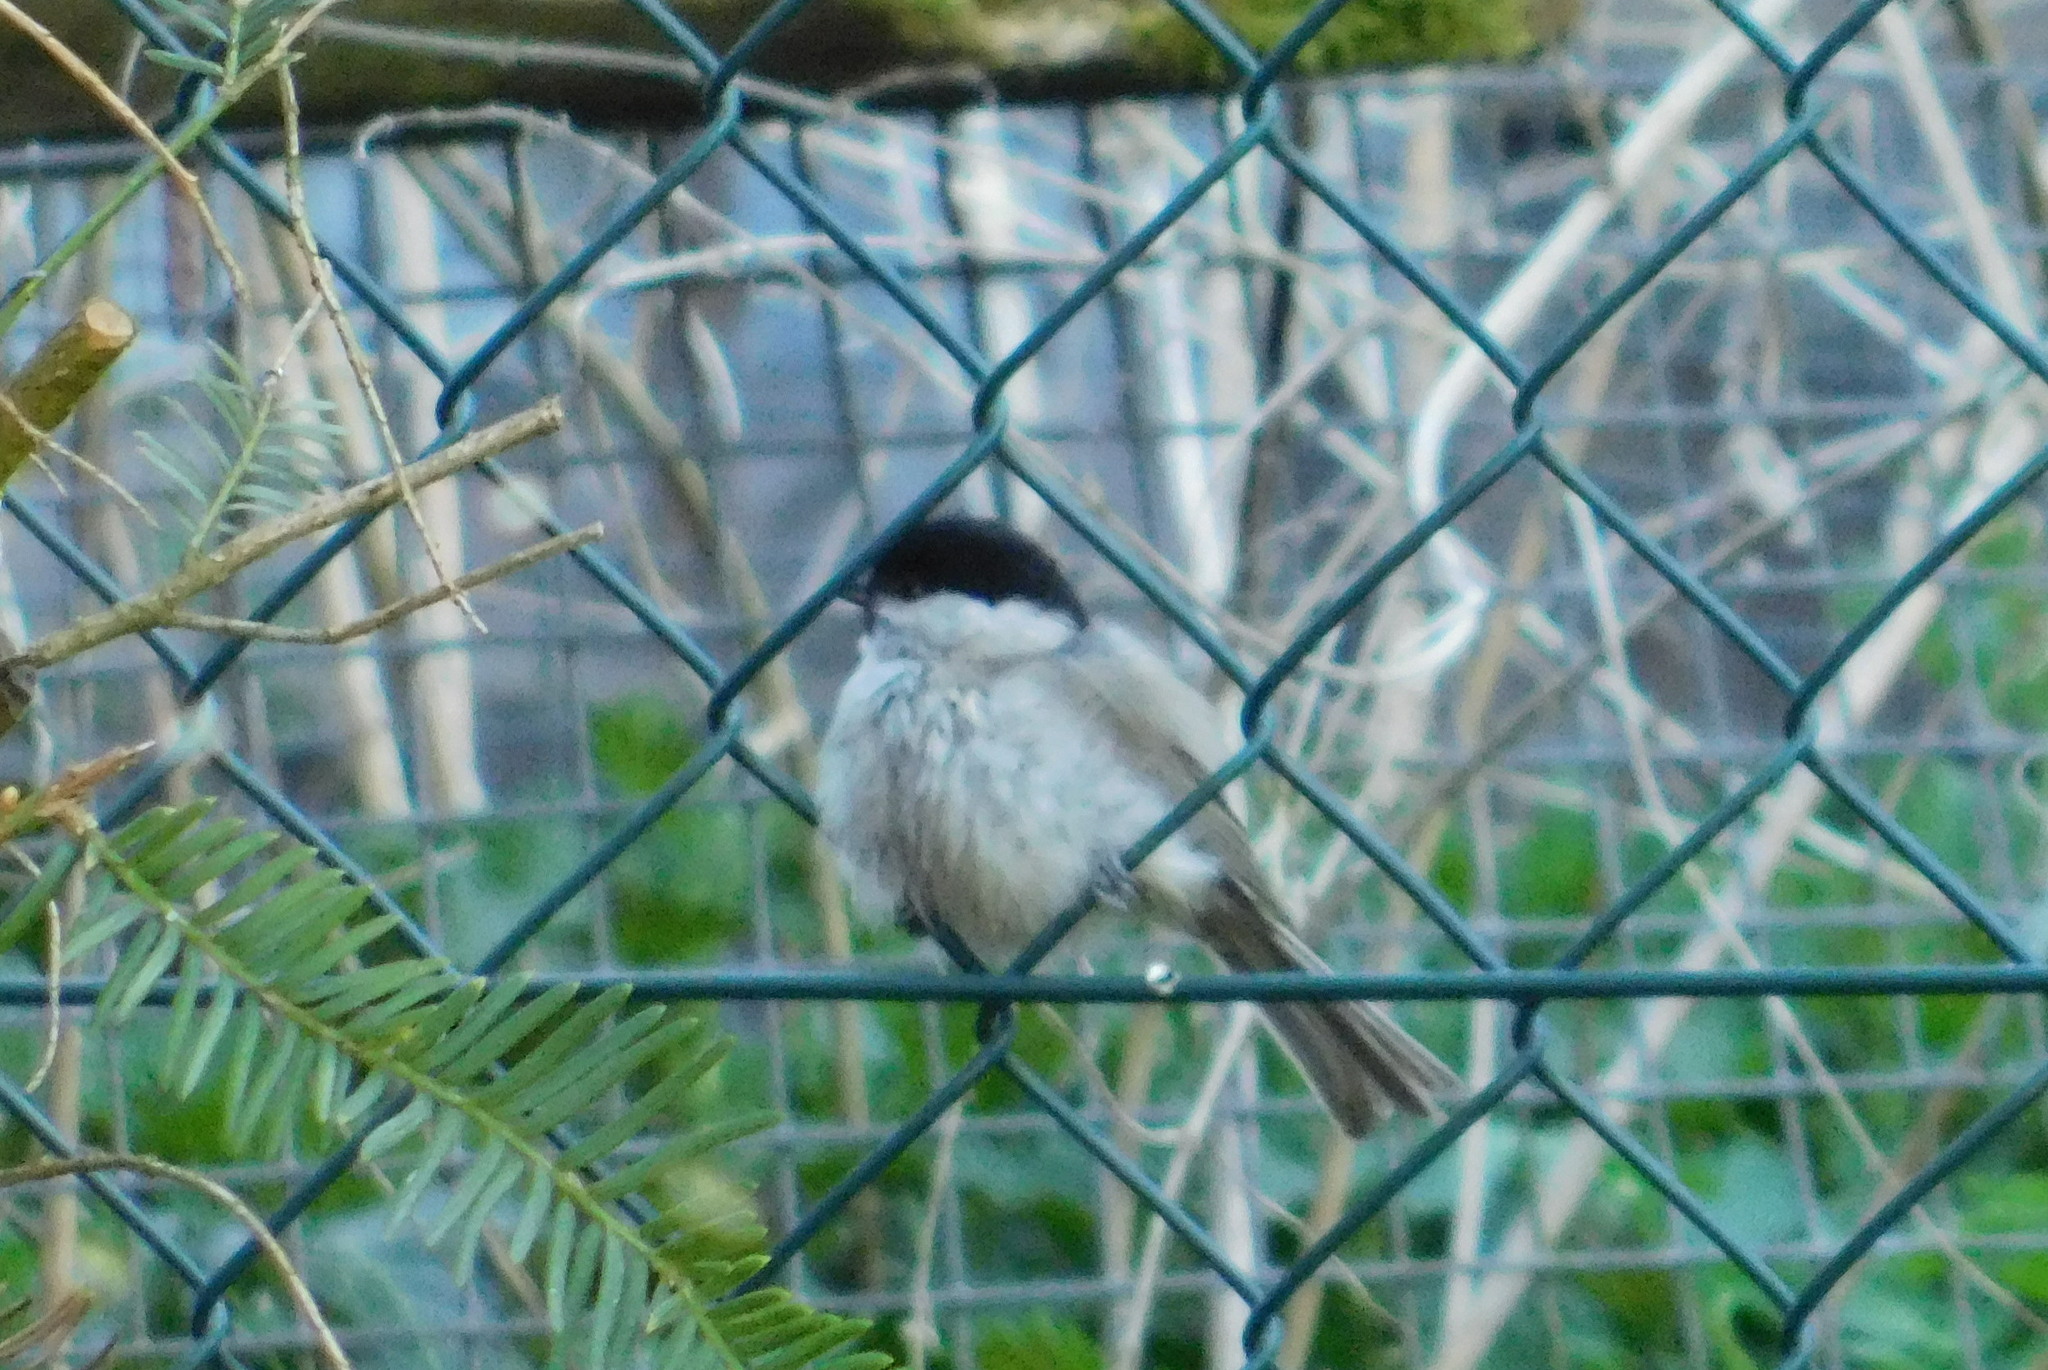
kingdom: Animalia
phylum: Chordata
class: Aves
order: Passeriformes
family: Paridae
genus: Poecile
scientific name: Poecile palustris
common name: Marsh tit
